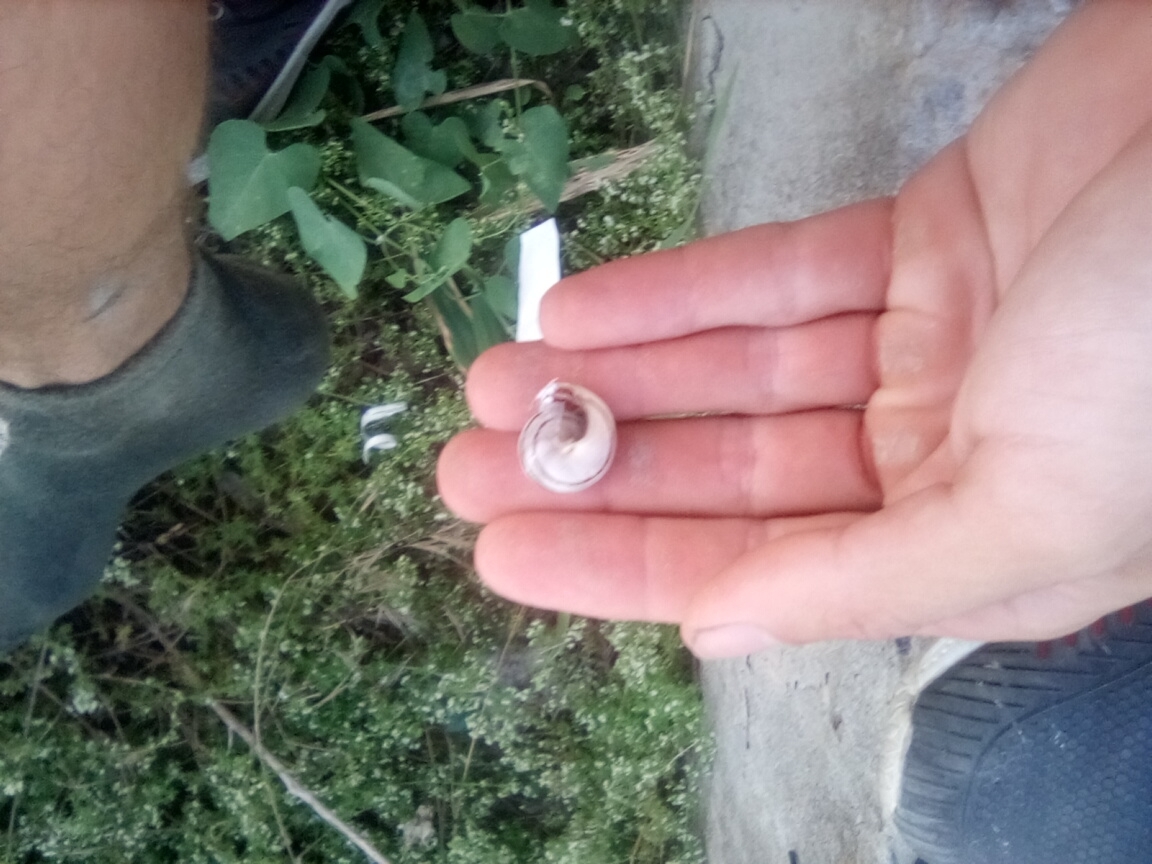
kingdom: Animalia
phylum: Mollusca
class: Gastropoda
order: Stylommatophora
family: Helicidae
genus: Eobania
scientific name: Eobania vermiculata
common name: Chocolateband snail
